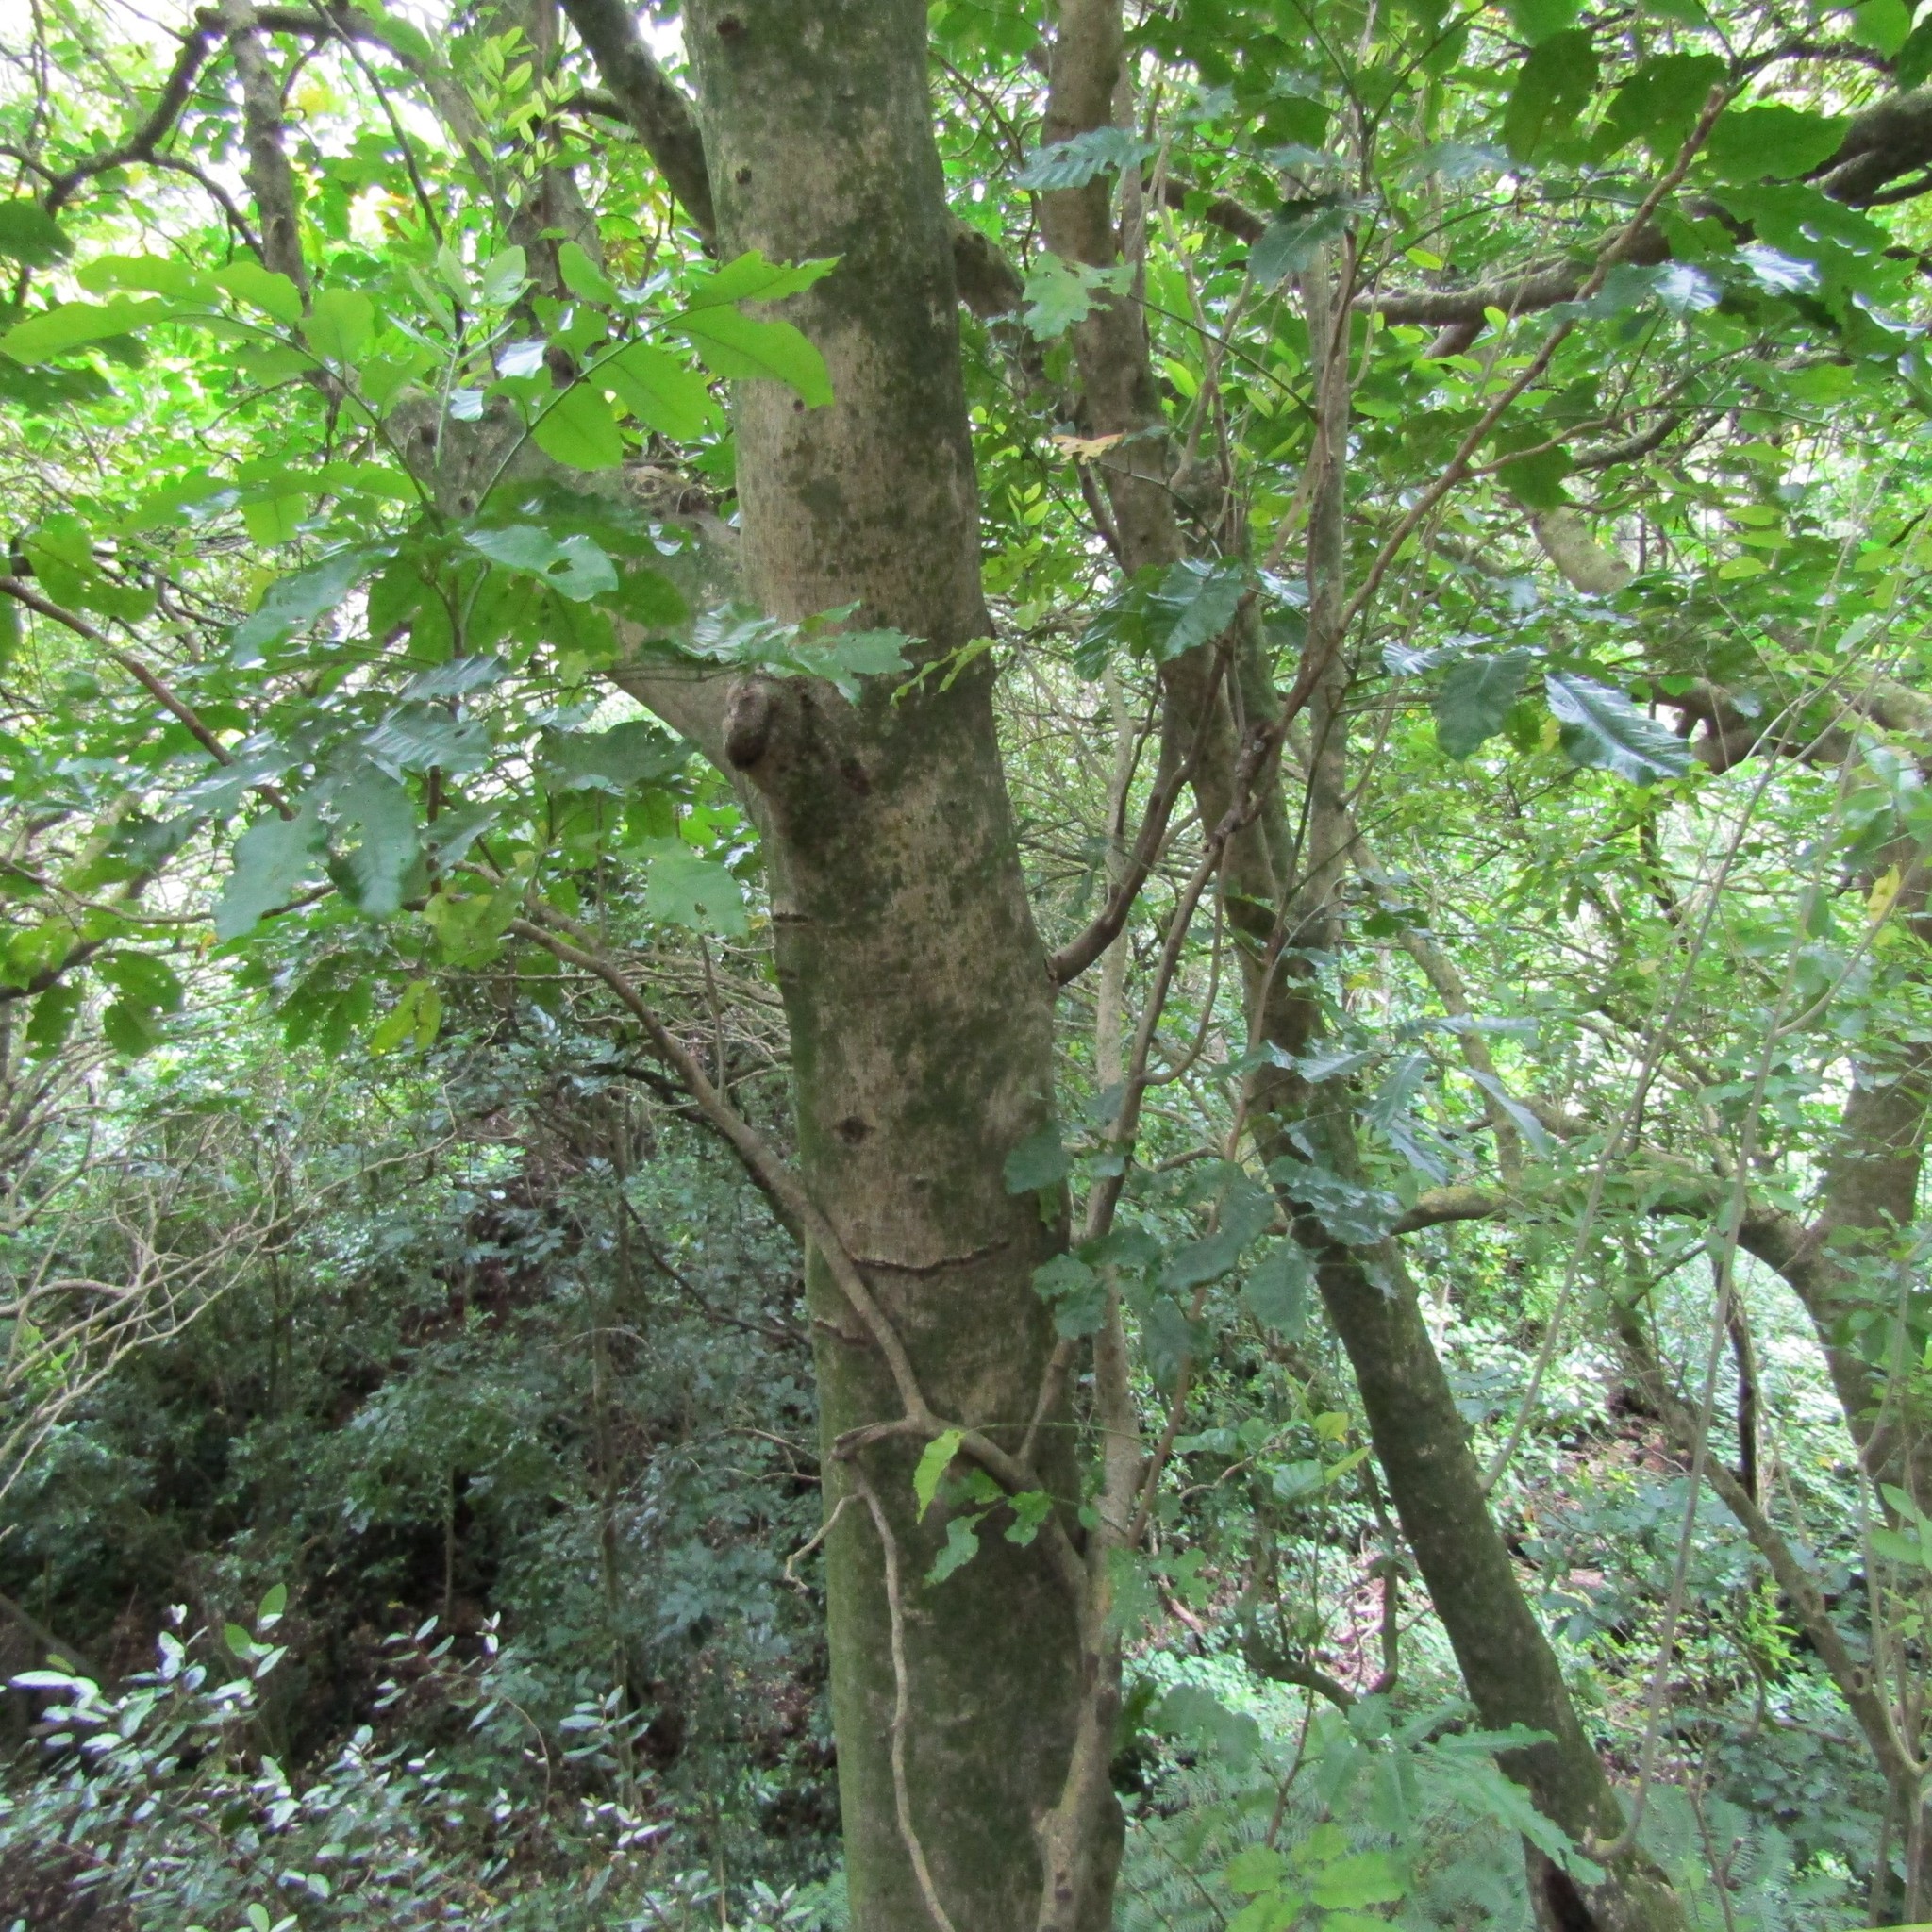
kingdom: Plantae
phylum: Tracheophyta
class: Magnoliopsida
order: Malpighiales
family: Violaceae
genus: Melicytus
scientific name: Melicytus ramiflorus
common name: Mahoe
